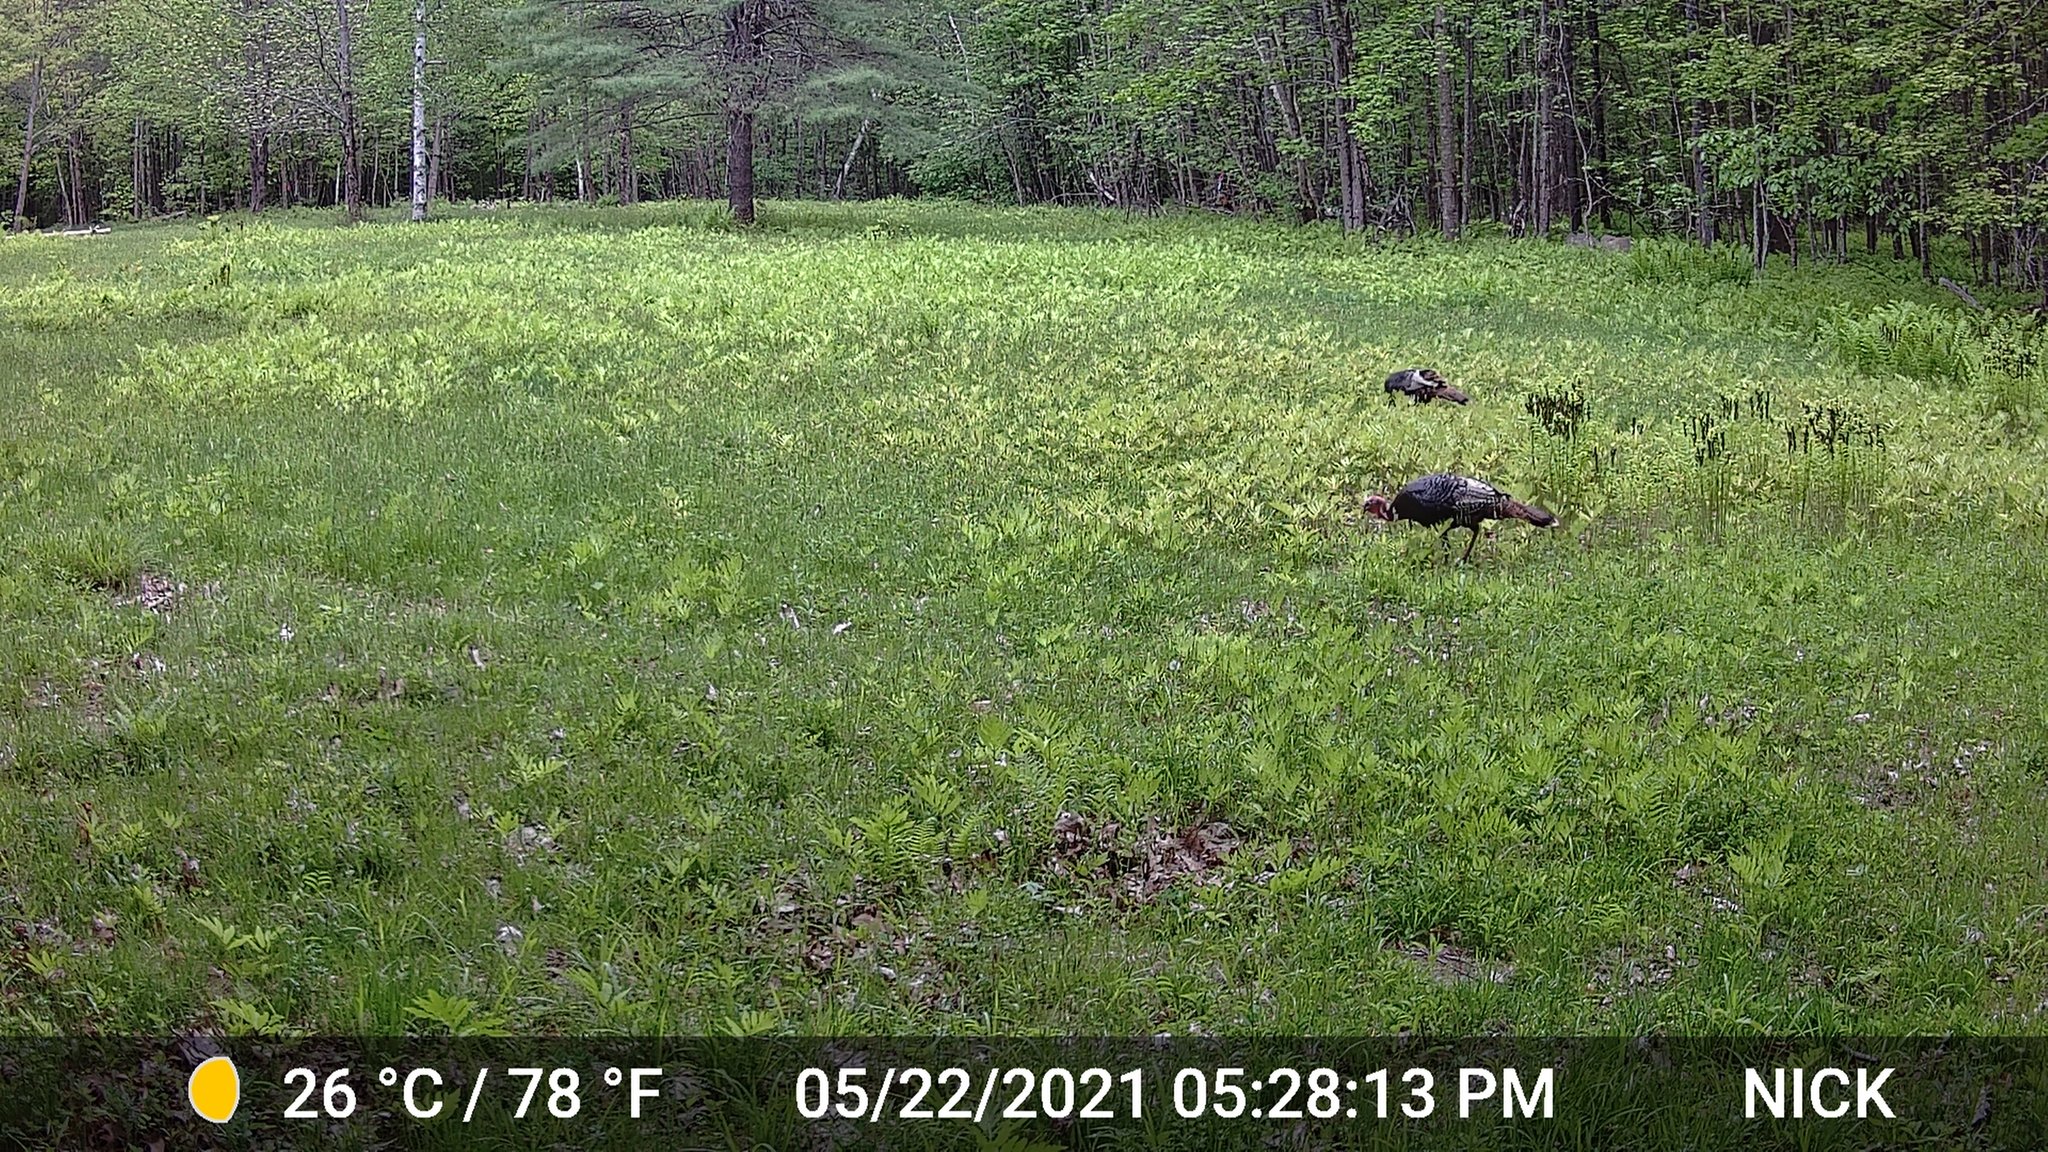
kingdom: Animalia
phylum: Chordata
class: Aves
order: Galliformes
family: Phasianidae
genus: Meleagris
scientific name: Meleagris gallopavo
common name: Wild turkey
